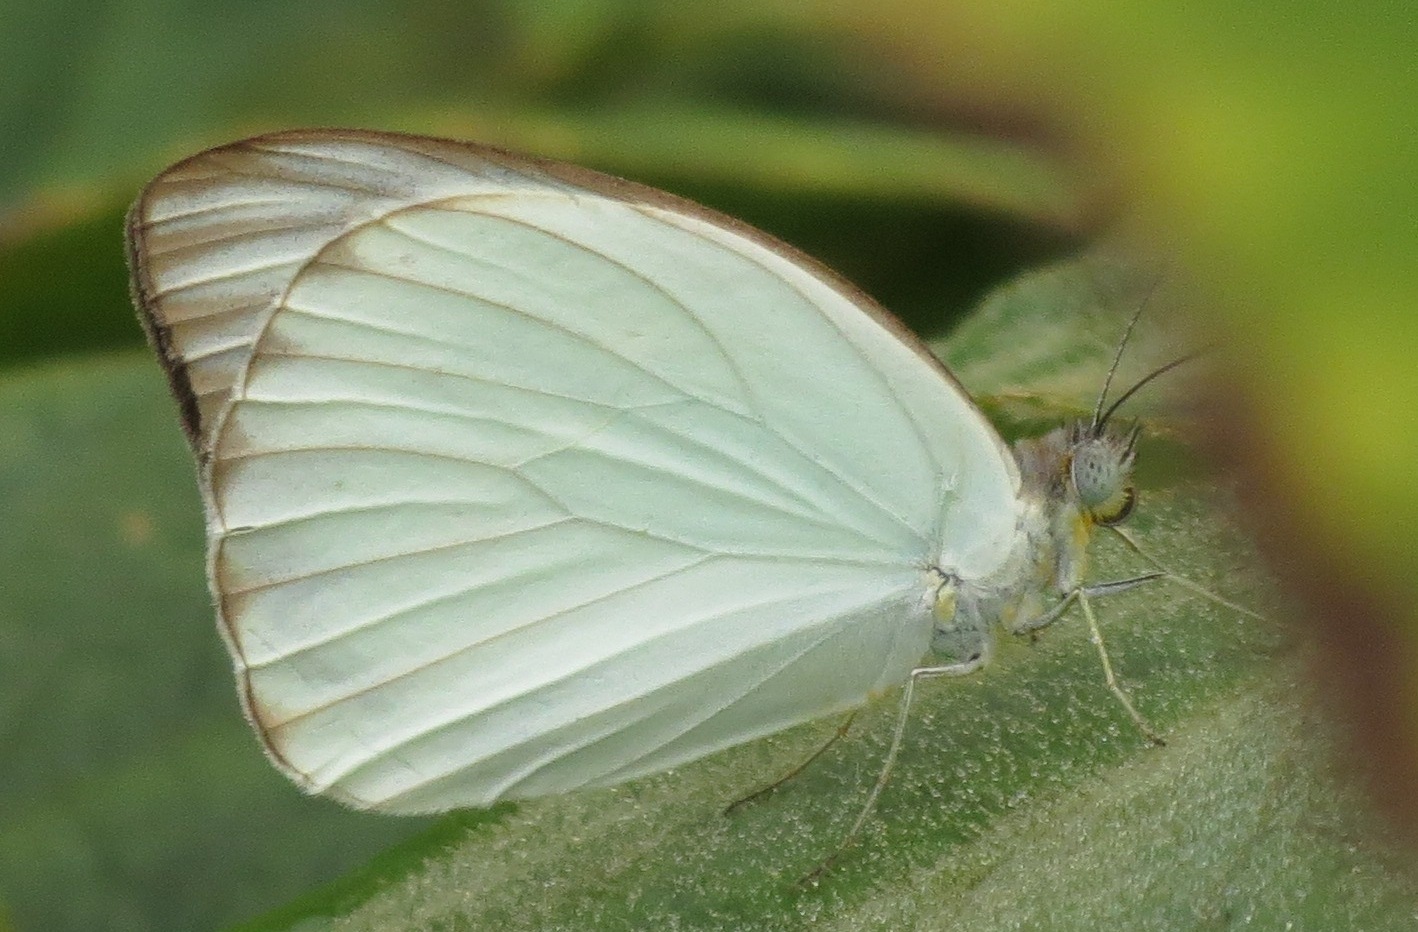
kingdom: Animalia
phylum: Arthropoda
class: Insecta
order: Lepidoptera
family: Pieridae
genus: Ascia
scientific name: Ascia monuste
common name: Great southern white
